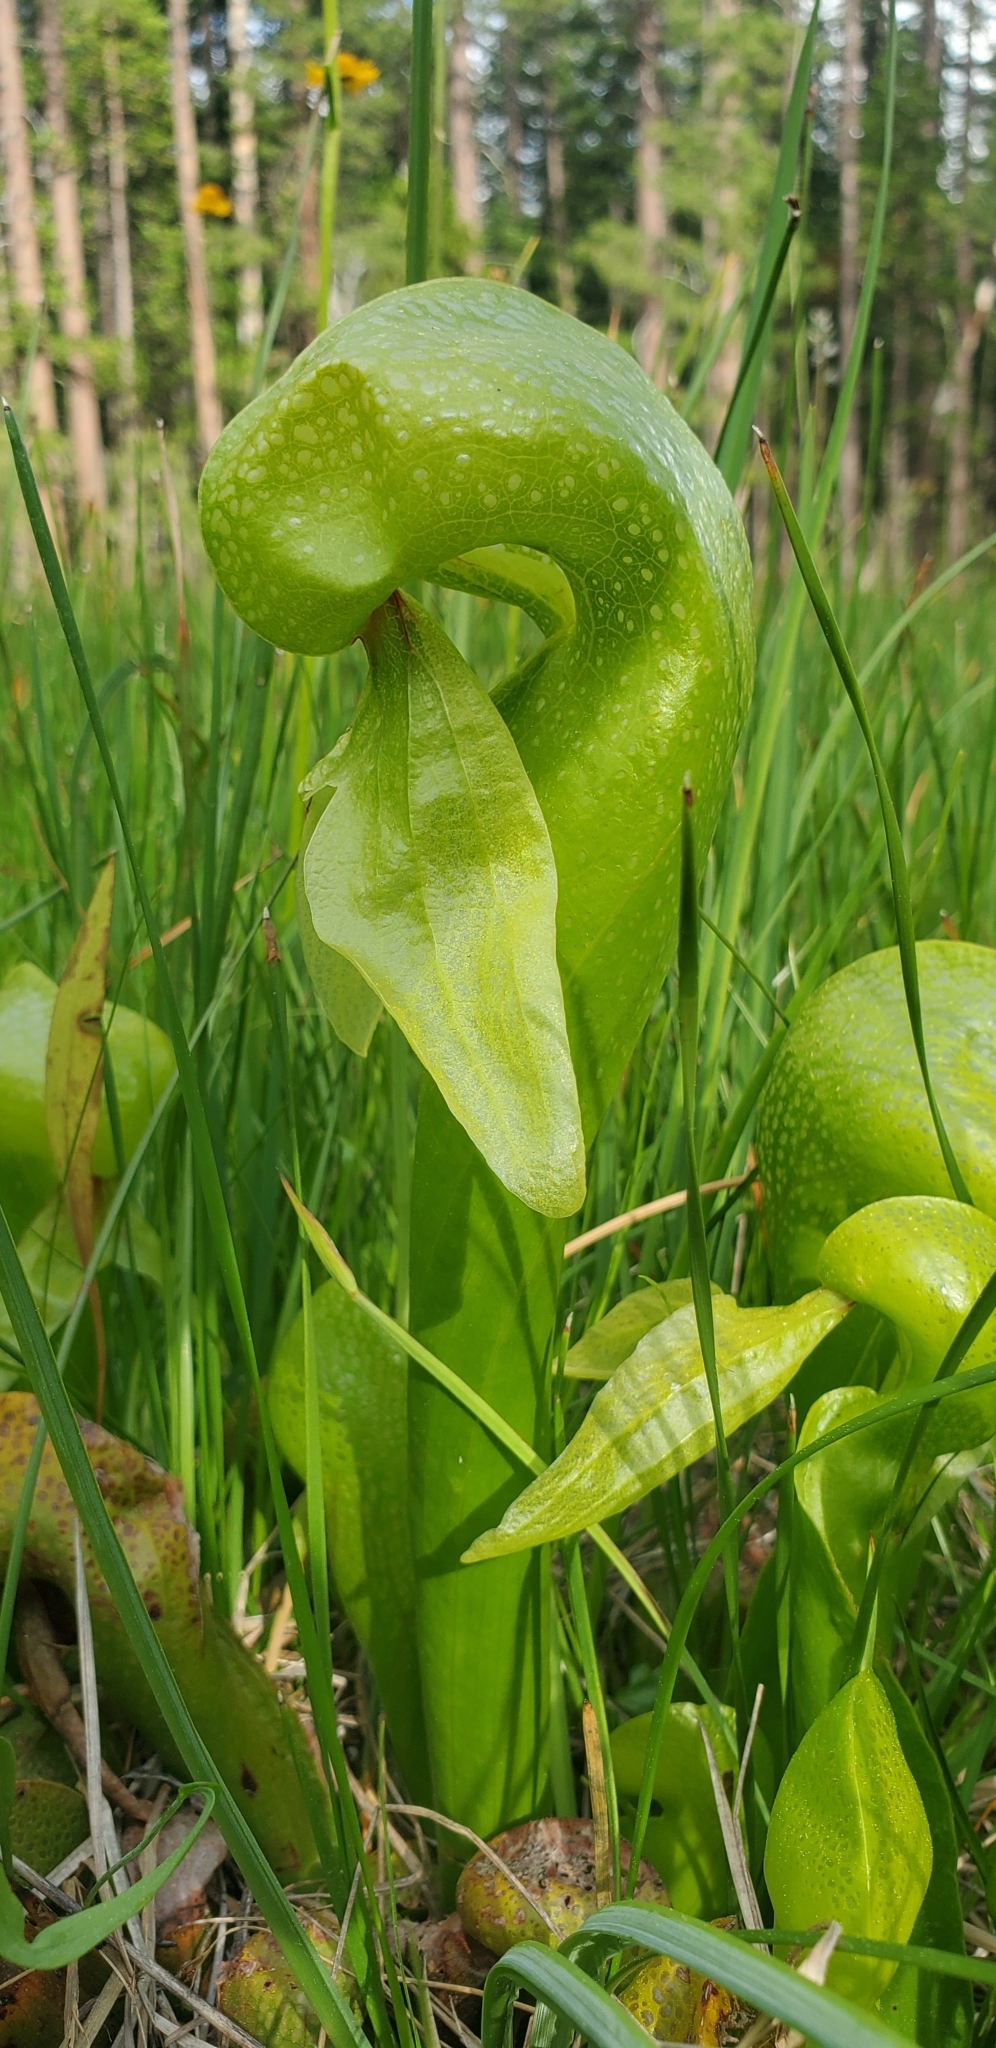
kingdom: Plantae
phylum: Tracheophyta
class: Magnoliopsida
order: Ericales
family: Sarraceniaceae
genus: Darlingtonia
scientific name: Darlingtonia californica
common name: California pitcher plant
